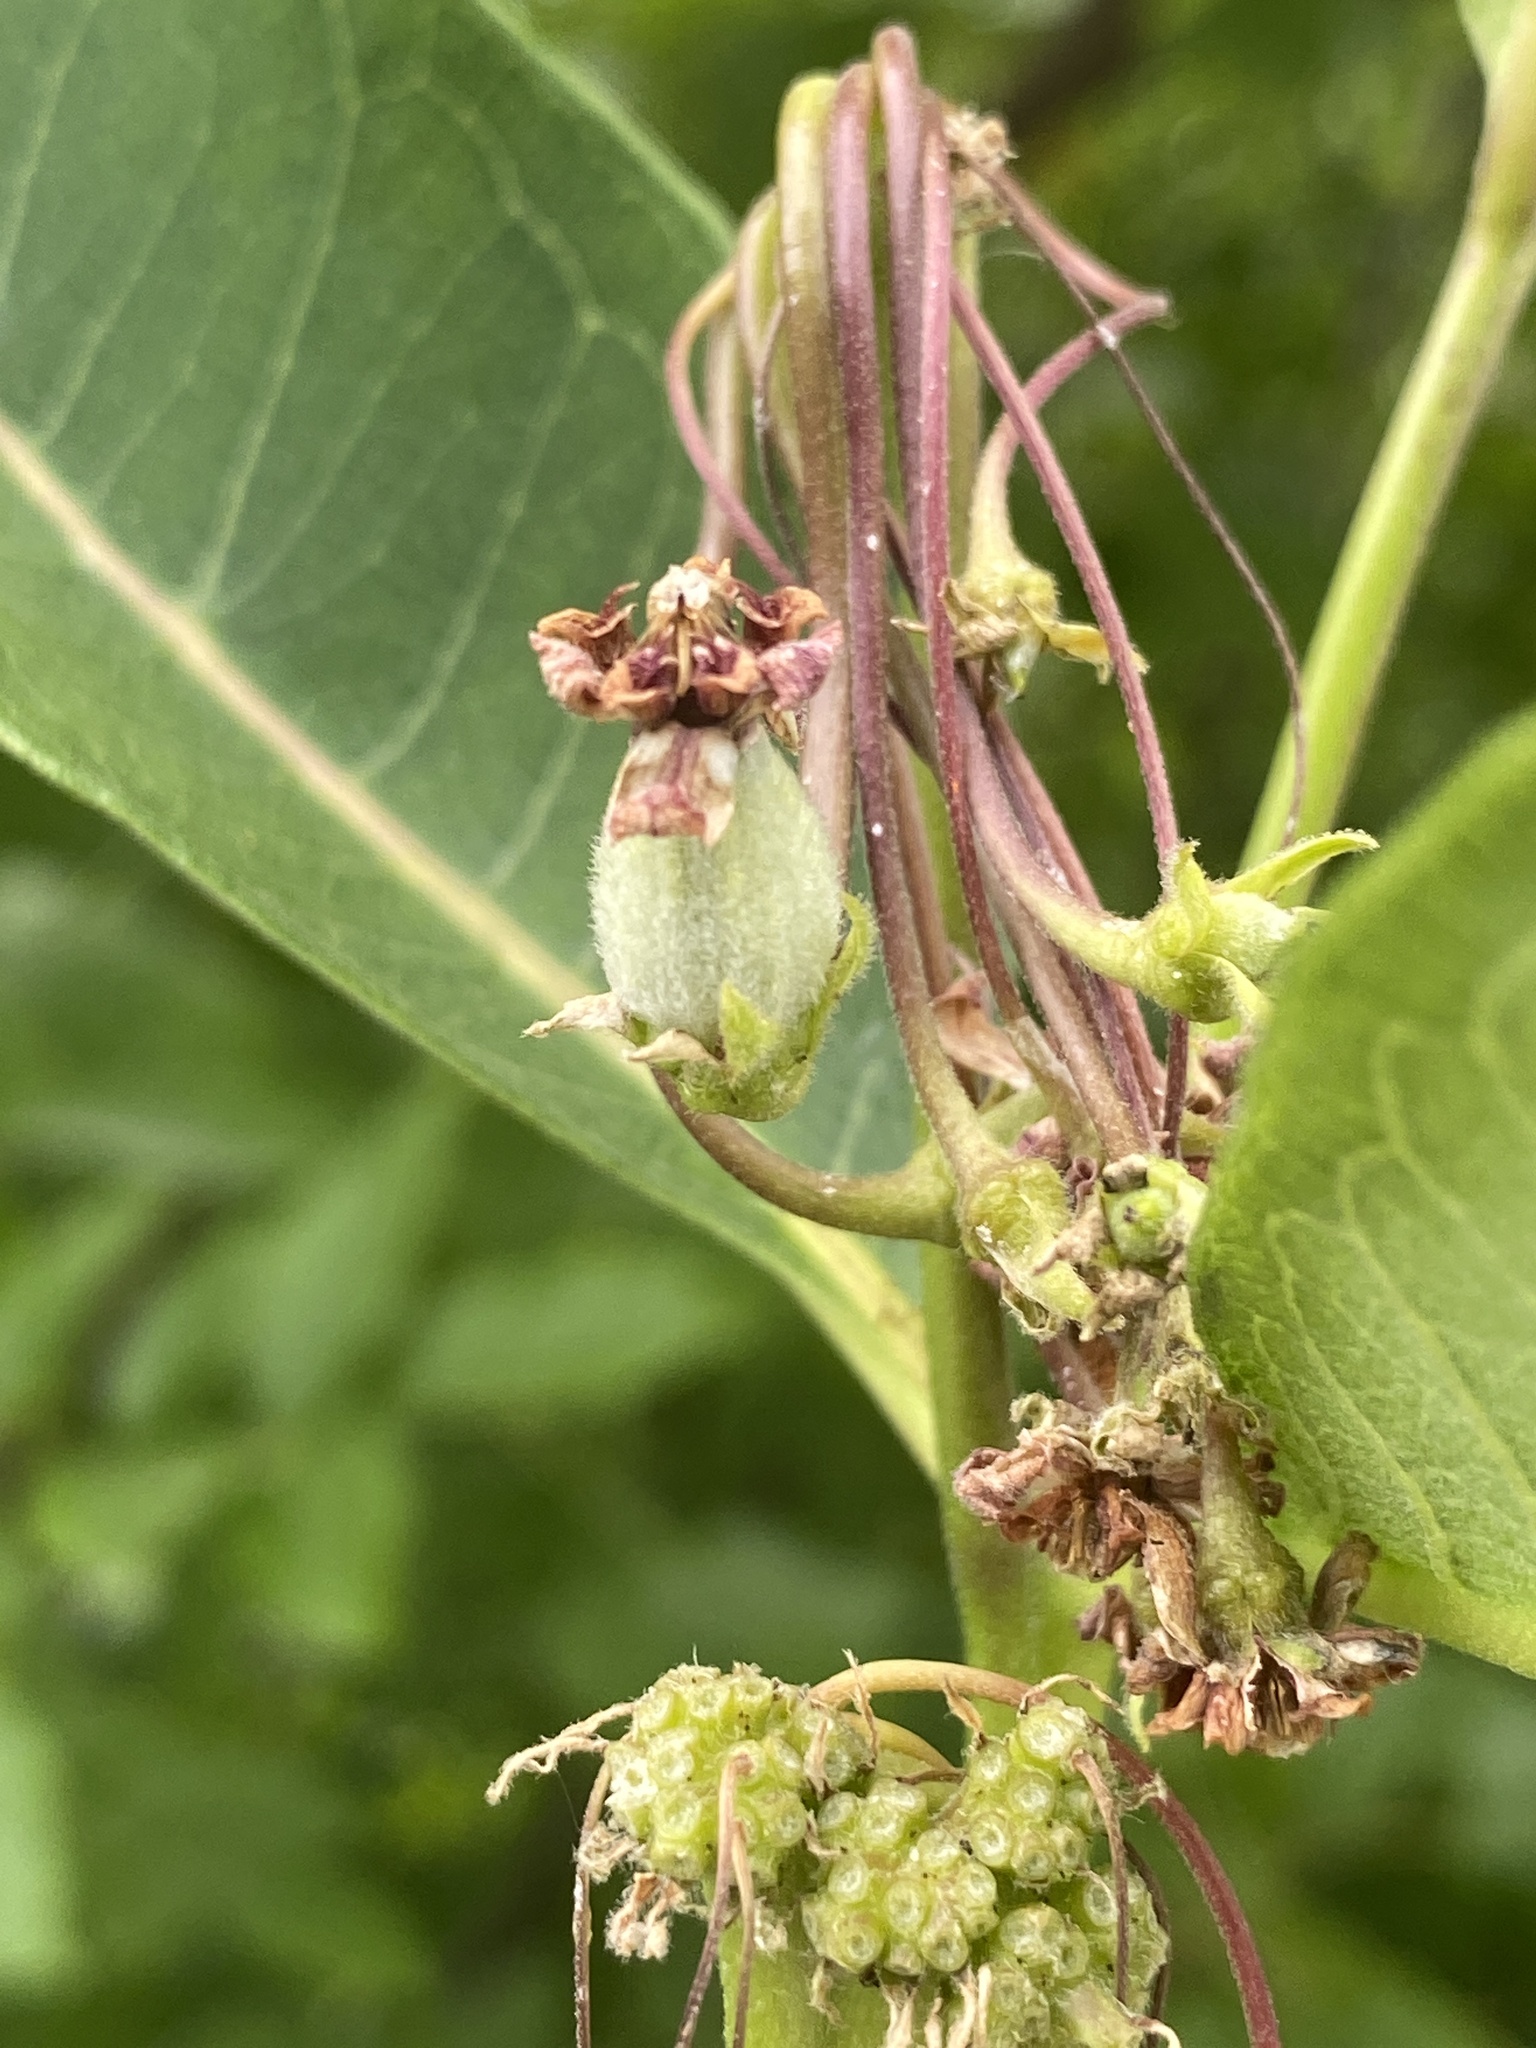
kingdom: Plantae
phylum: Tracheophyta
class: Magnoliopsida
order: Gentianales
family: Apocynaceae
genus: Asclepias
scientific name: Asclepias syriaca
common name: Common milkweed
